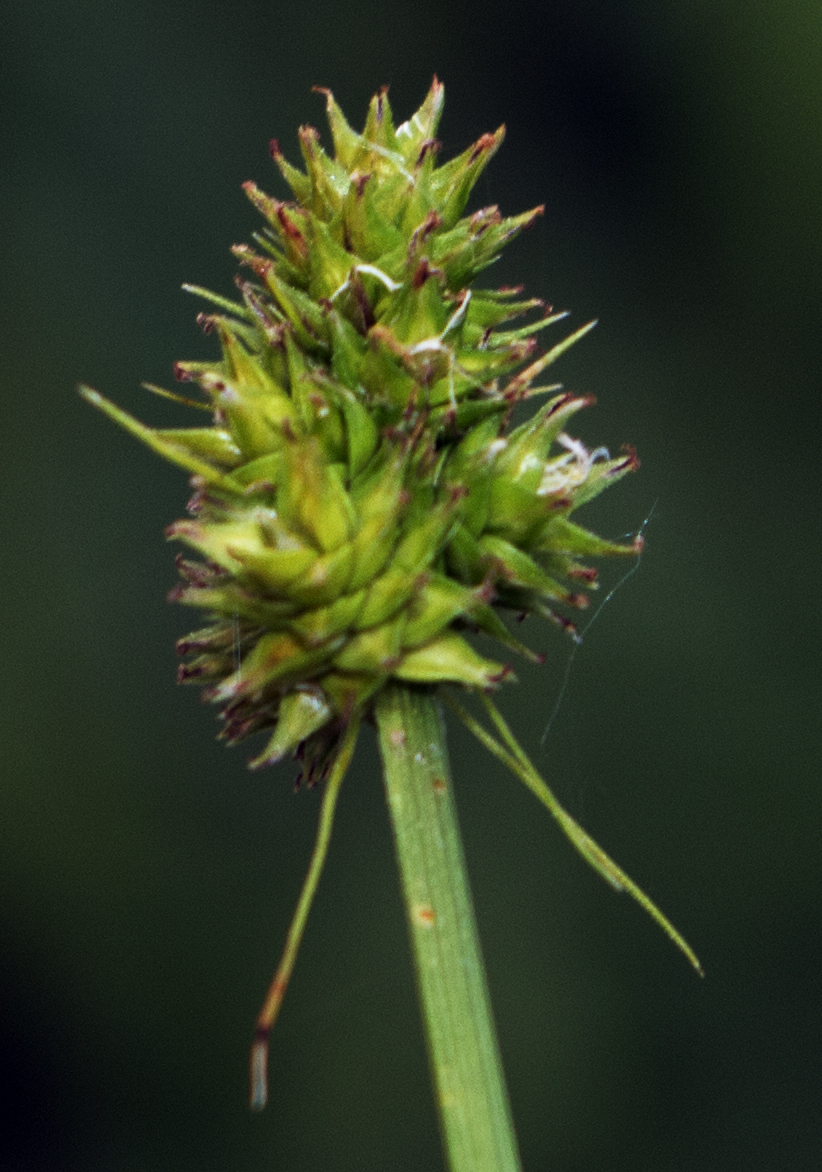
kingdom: Plantae
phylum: Tracheophyta
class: Liliopsida
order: Poales
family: Cyperaceae
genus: Carex
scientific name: Carex cephalophora
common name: Oval-headed sedge
